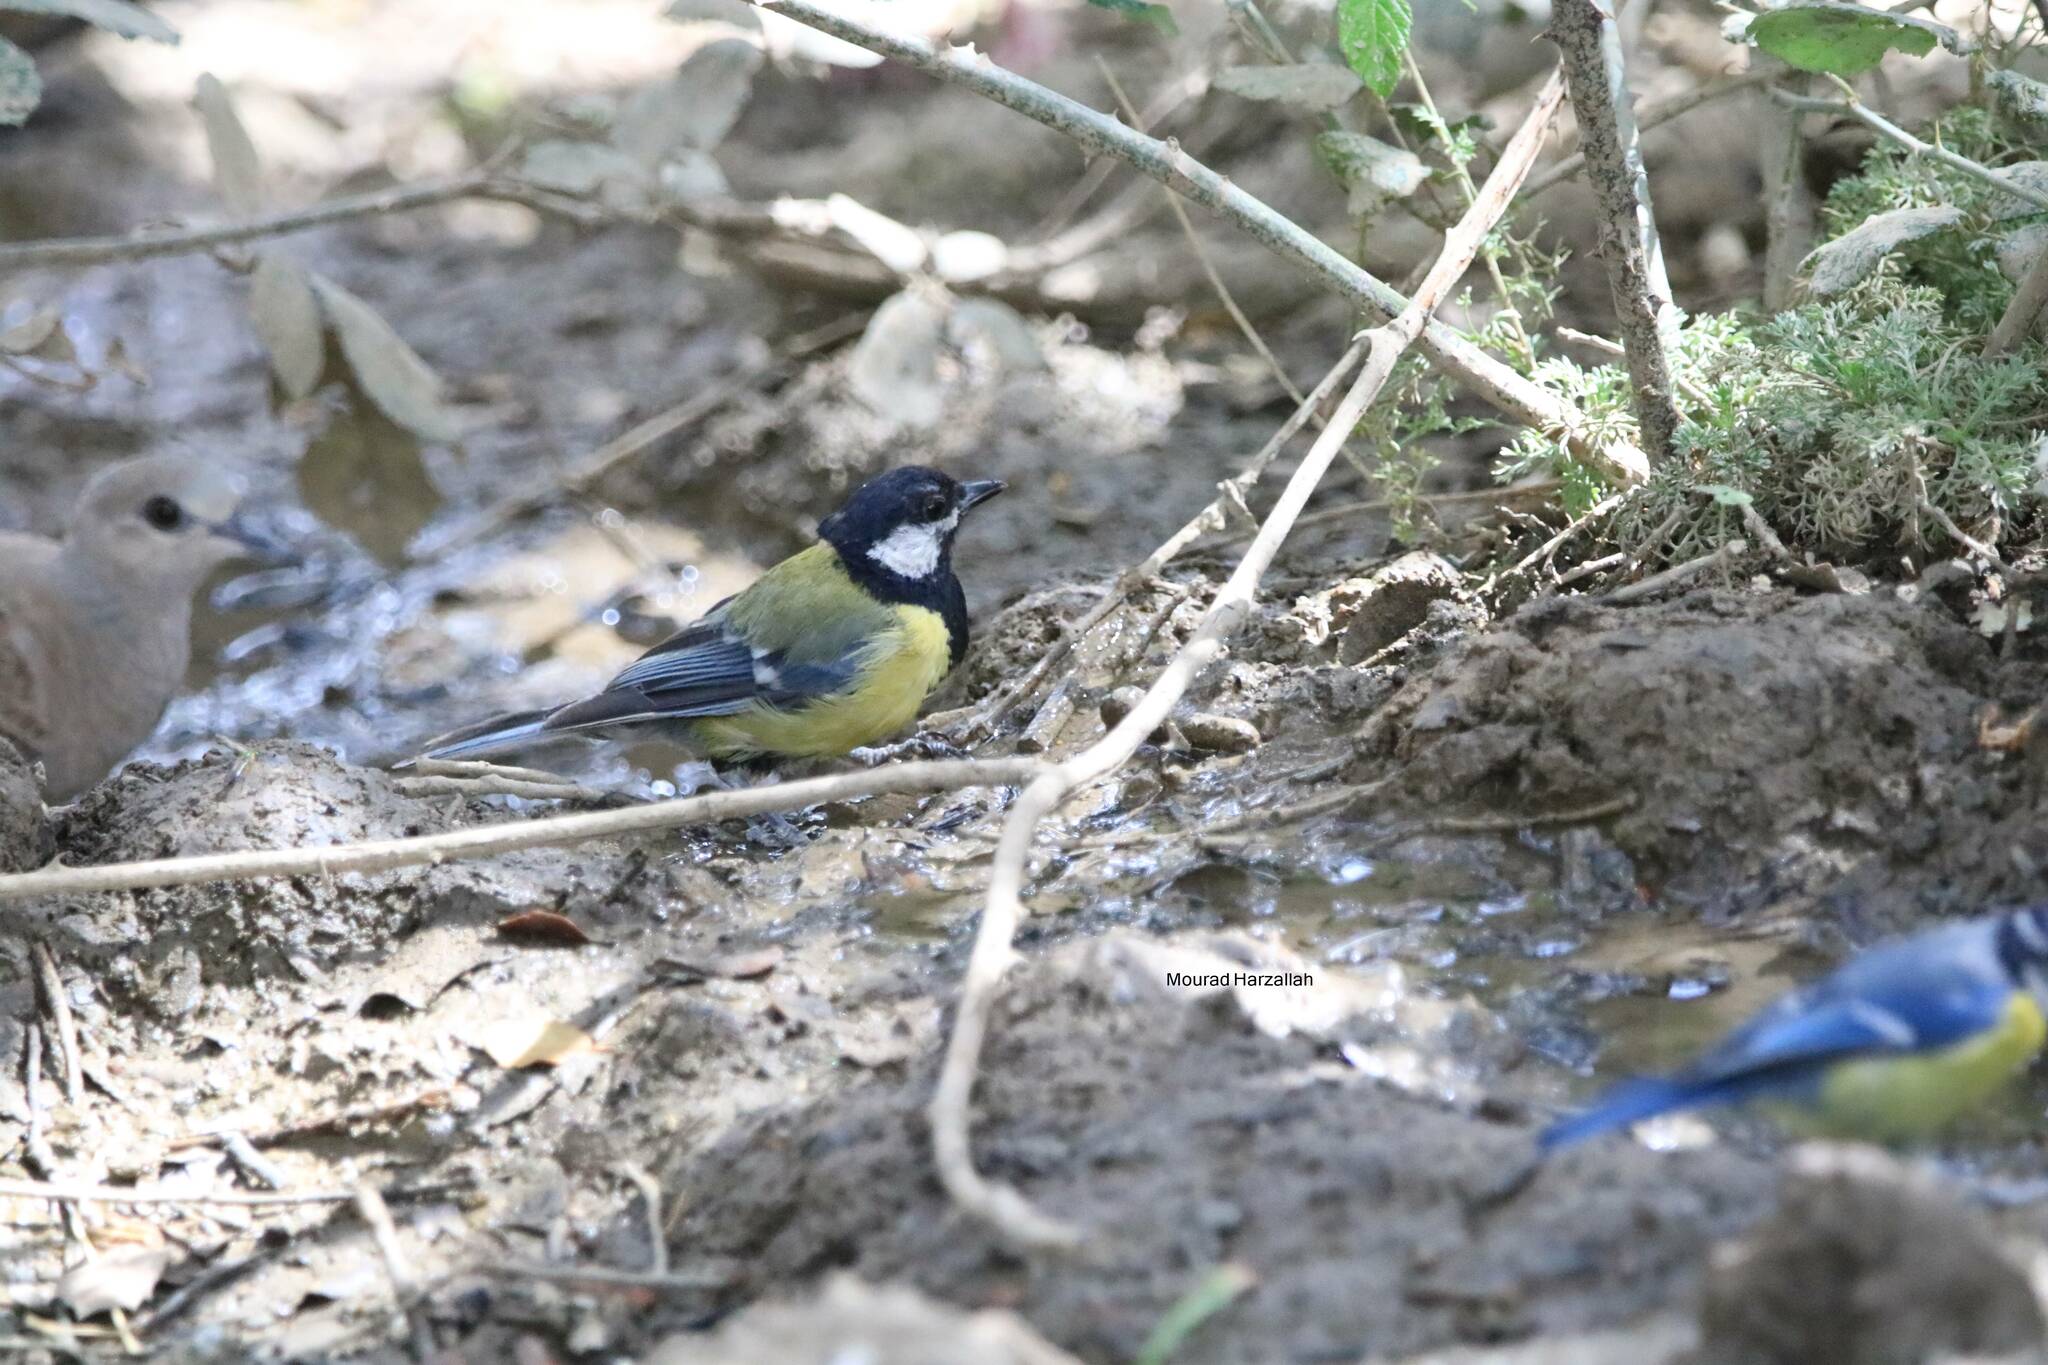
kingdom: Animalia
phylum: Chordata
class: Aves
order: Passeriformes
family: Paridae
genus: Parus
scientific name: Parus major
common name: Great tit
